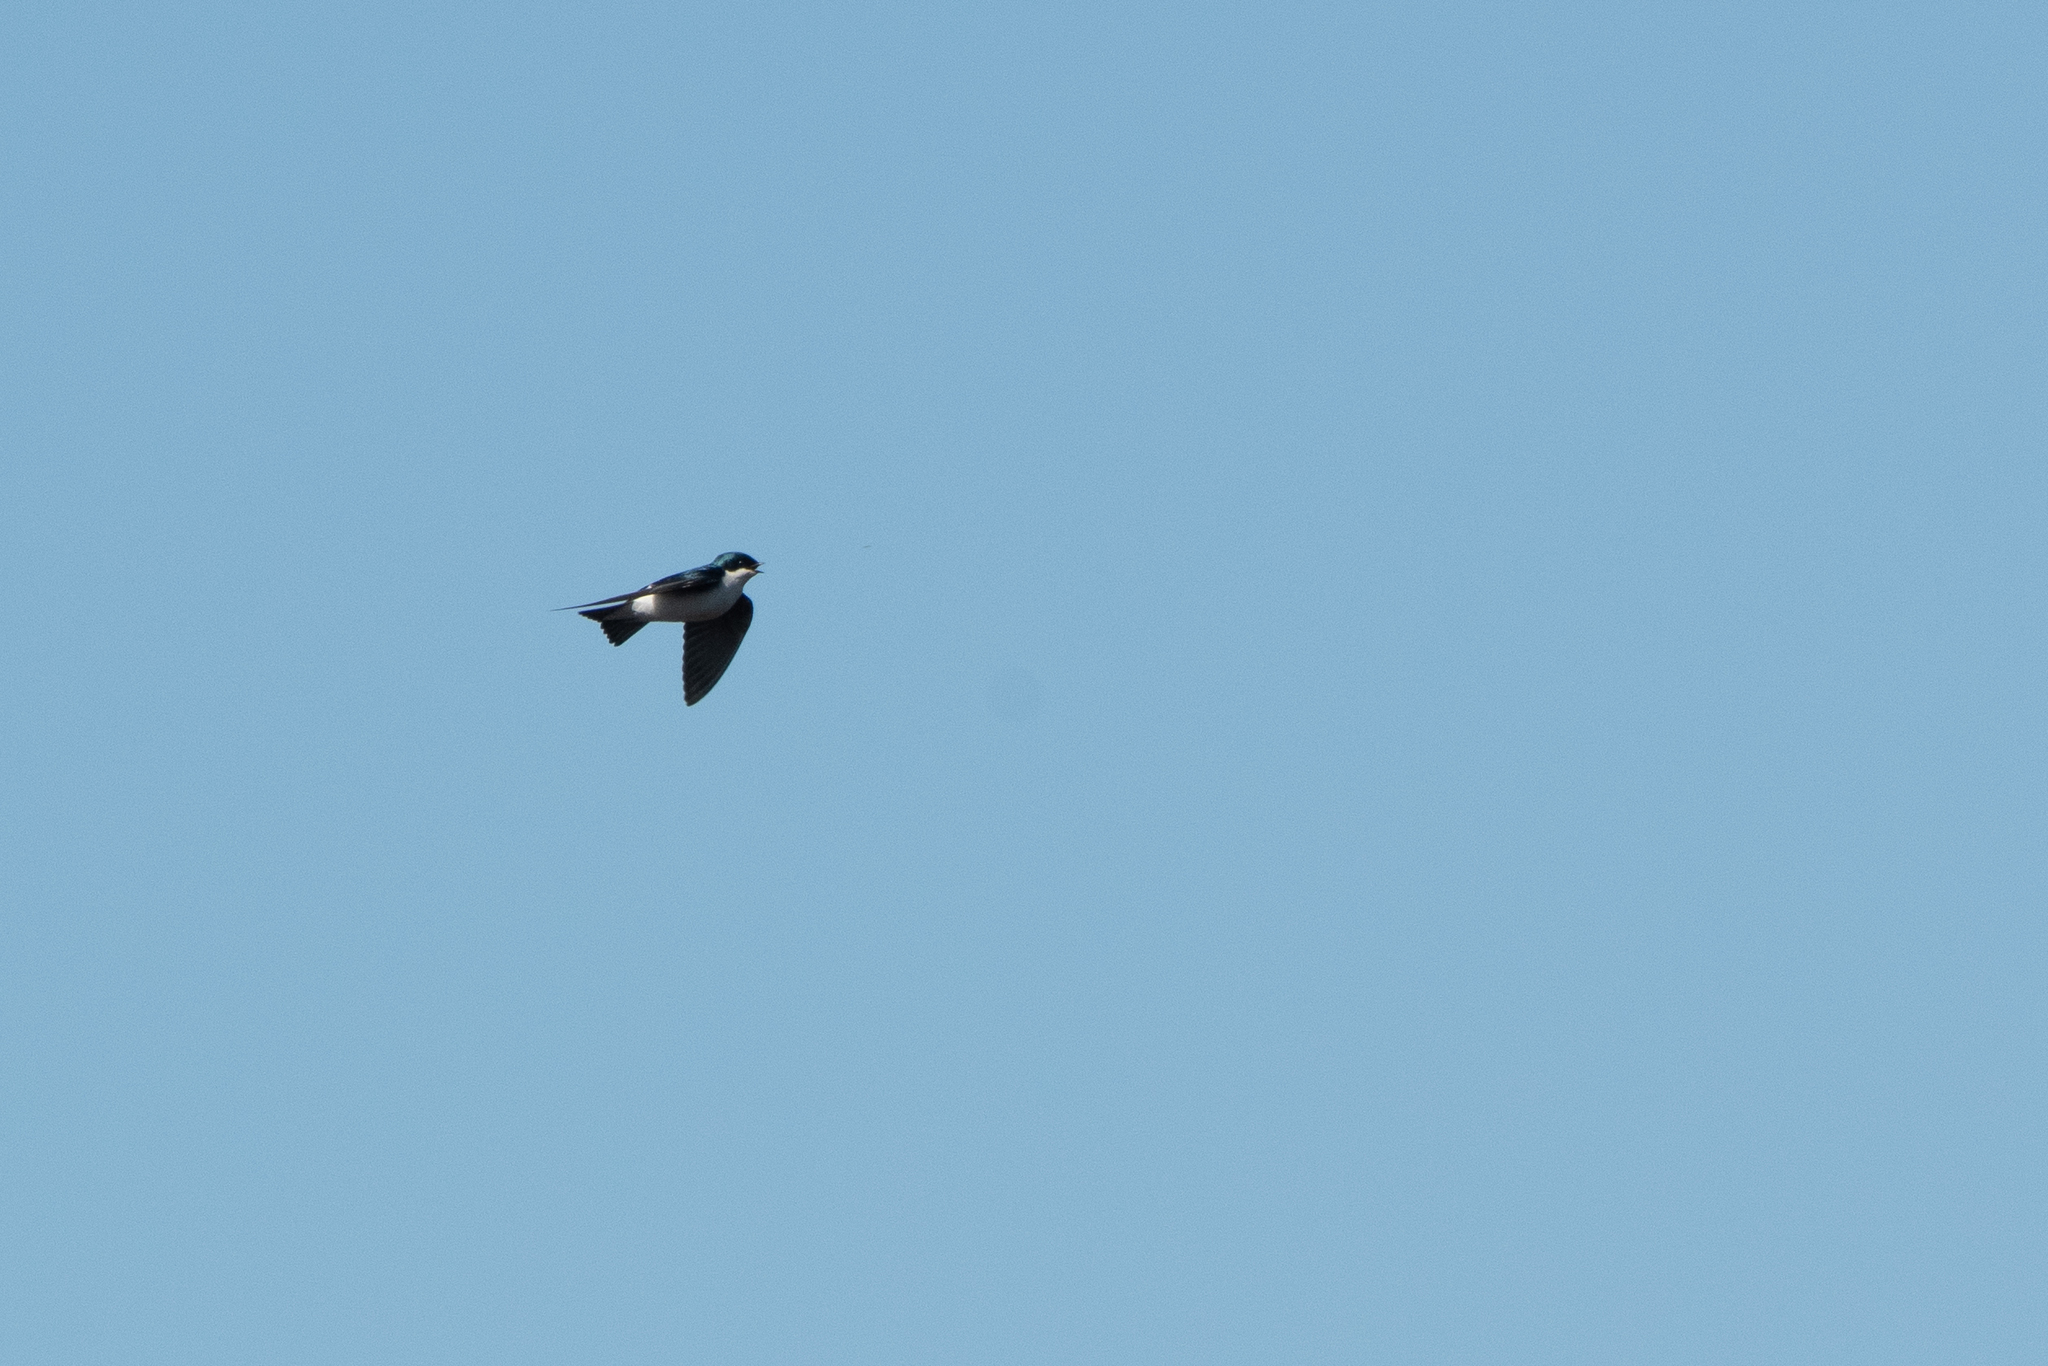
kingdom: Animalia
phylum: Chordata
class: Aves
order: Passeriformes
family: Hirundinidae
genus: Tachycineta
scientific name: Tachycineta bicolor
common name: Tree swallow
